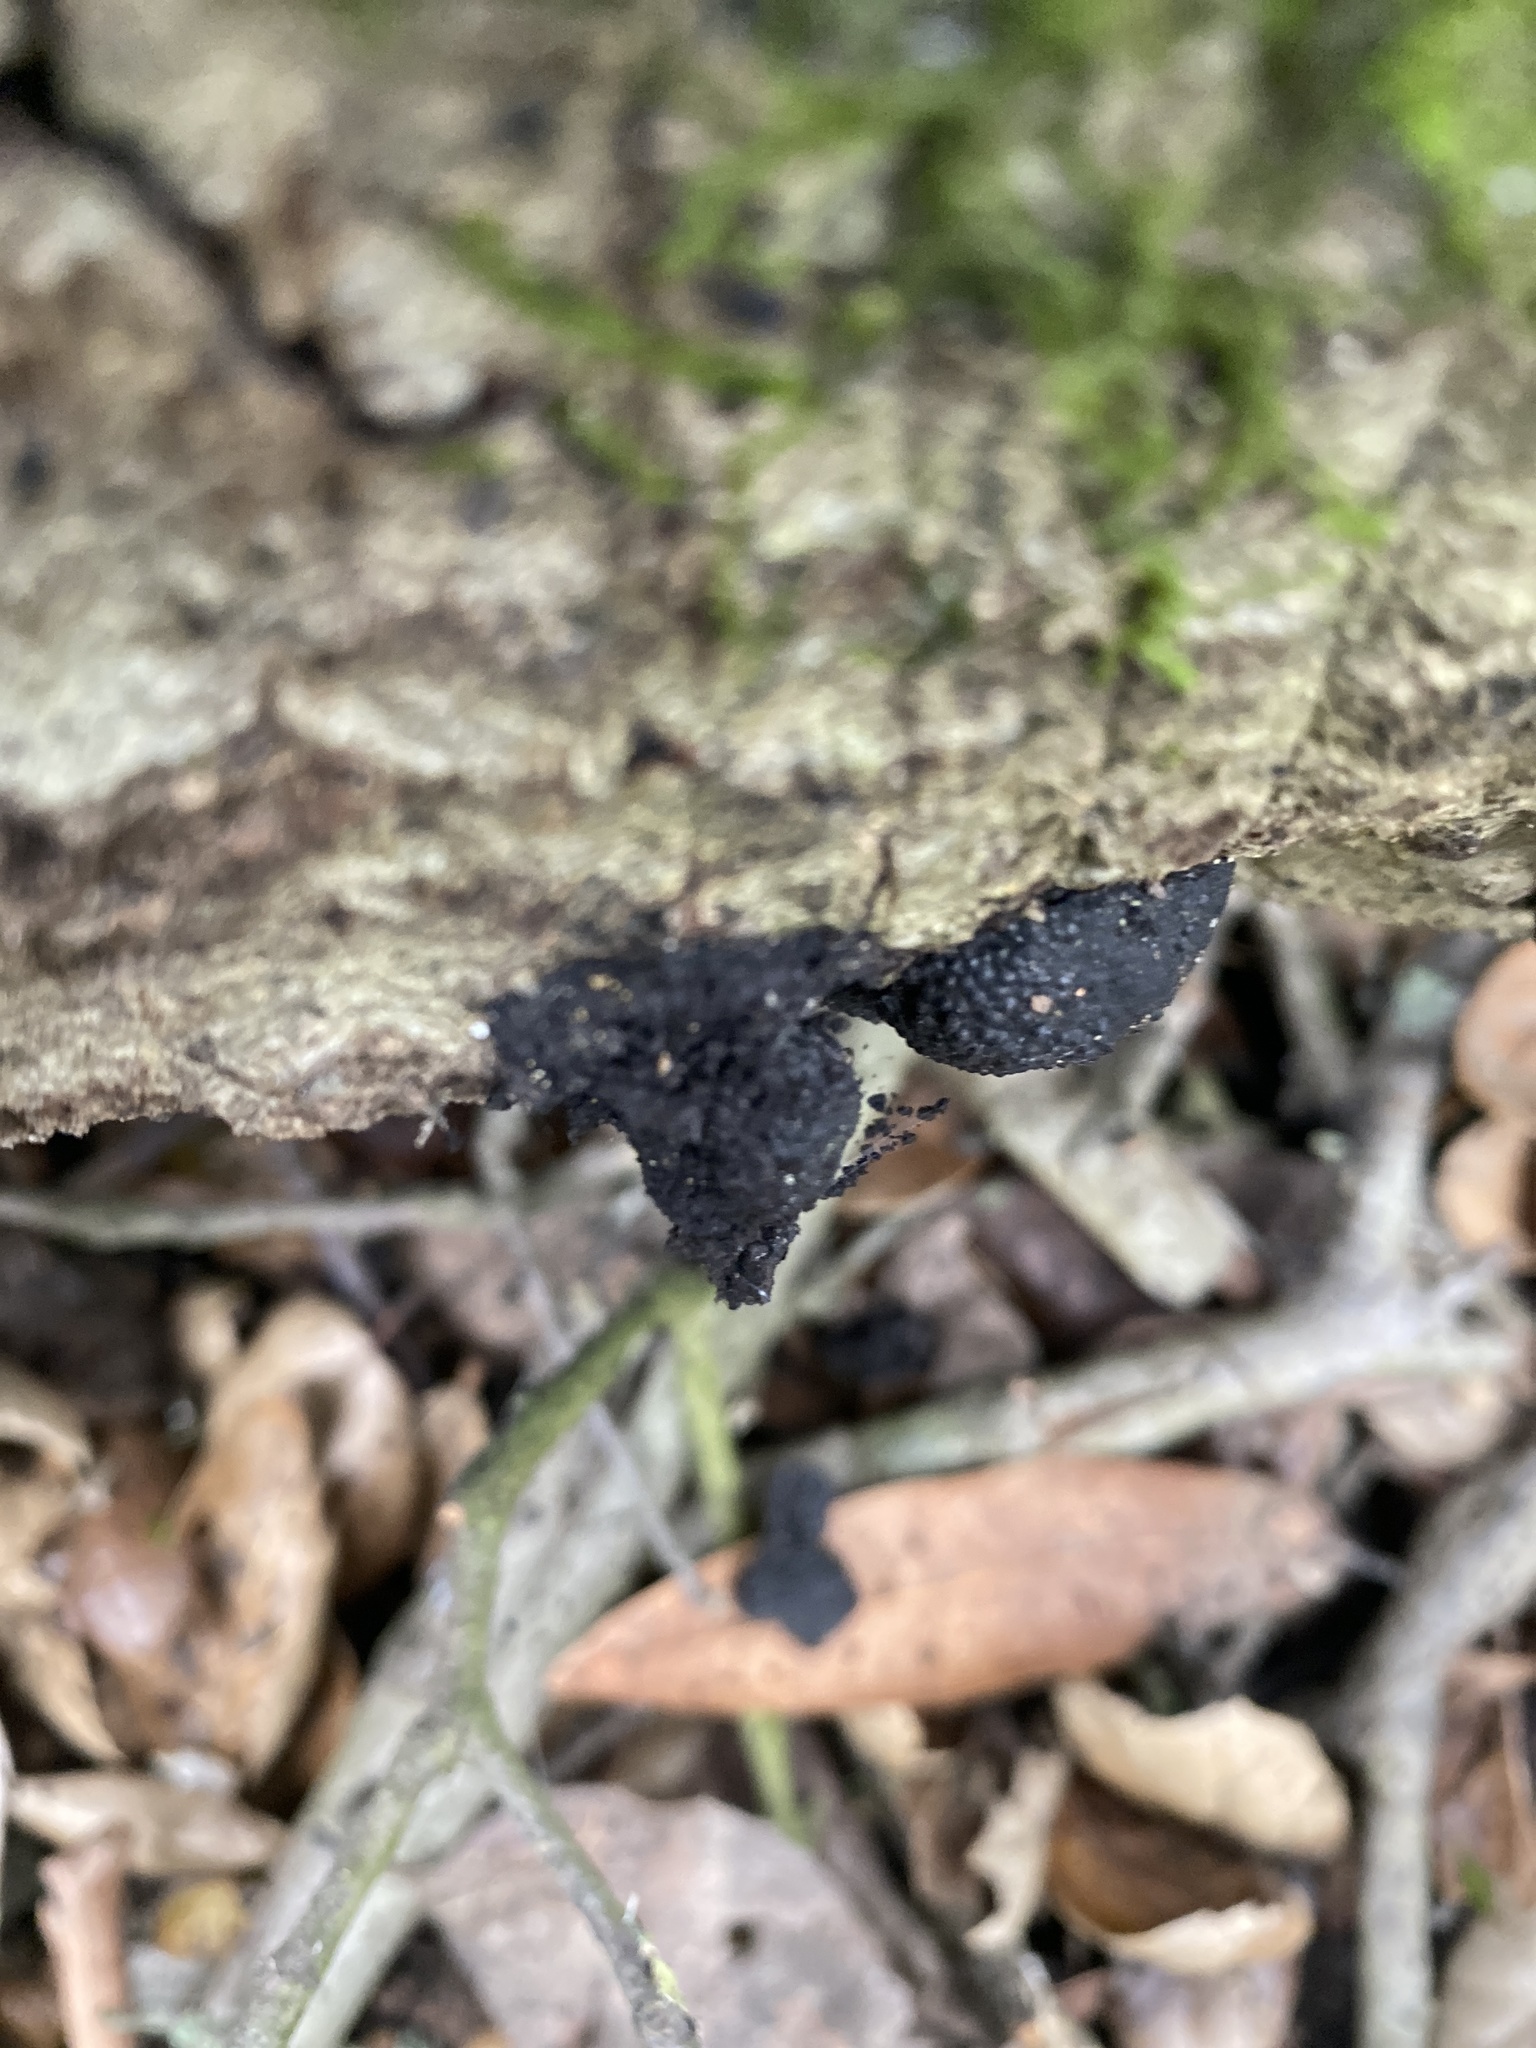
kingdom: Fungi
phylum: Ascomycota
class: Sordariomycetes
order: Xylariales
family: Hypoxylaceae
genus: Annulohypoxylon
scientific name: Annulohypoxylon thouarsianum
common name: Cramp balls
